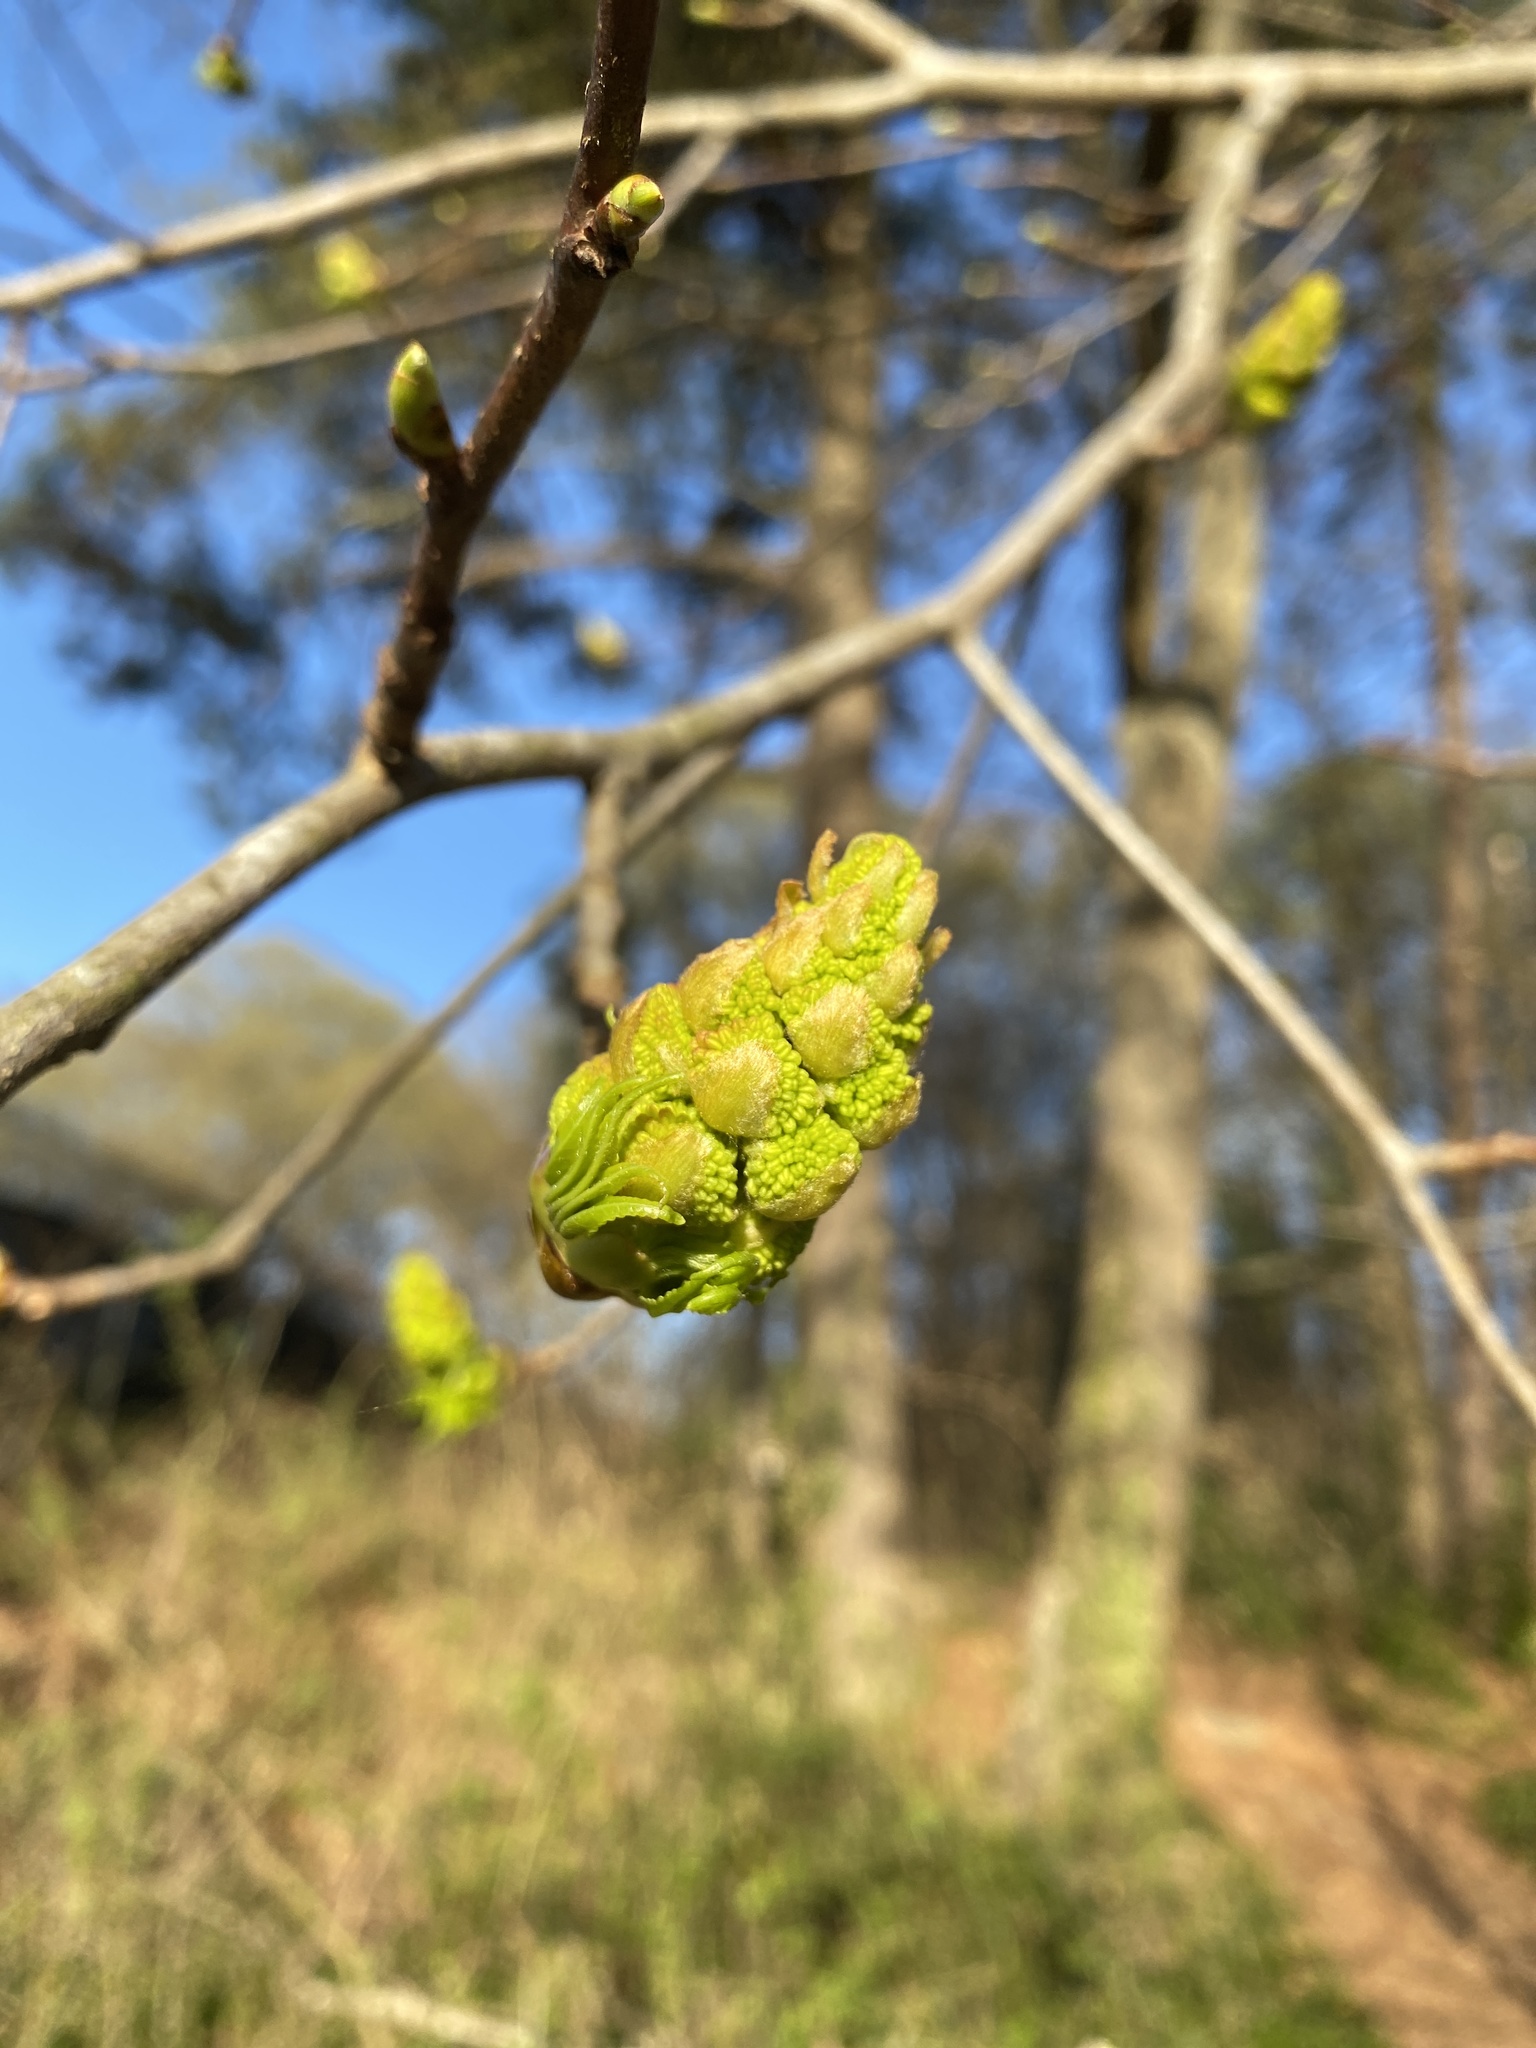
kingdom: Plantae
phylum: Tracheophyta
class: Magnoliopsida
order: Saxifragales
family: Altingiaceae
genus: Liquidambar
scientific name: Liquidambar styraciflua
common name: Sweet gum
